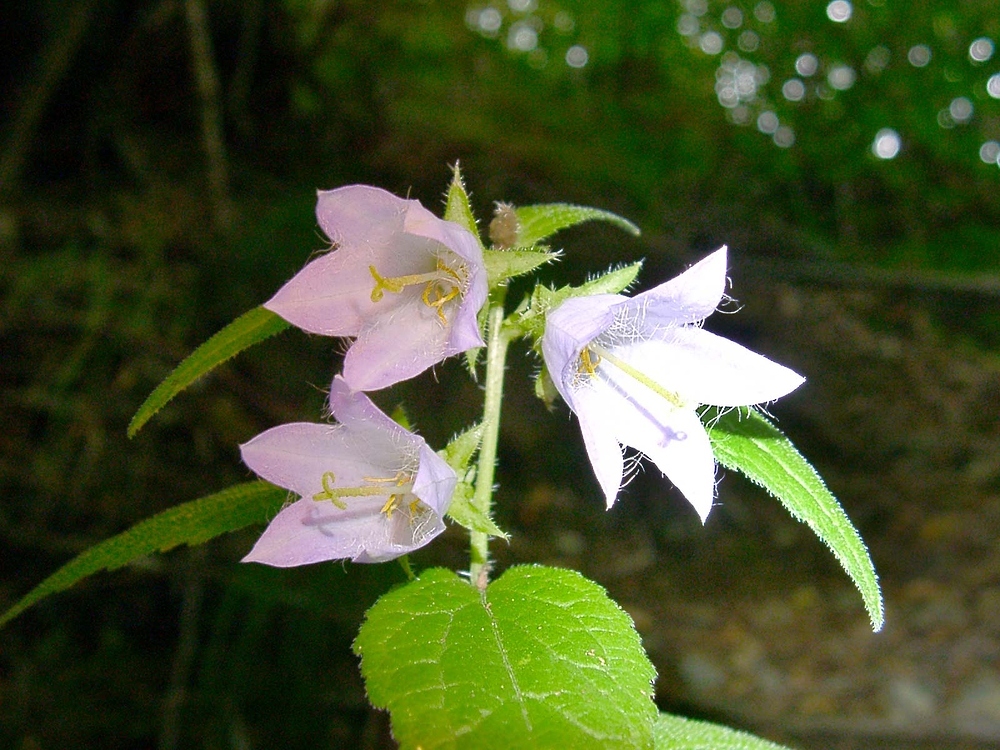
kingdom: Plantae
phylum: Tracheophyta
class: Magnoliopsida
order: Asterales
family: Campanulaceae
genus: Campanula
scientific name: Campanula trachelium
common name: Nettle-leaved bellflower
